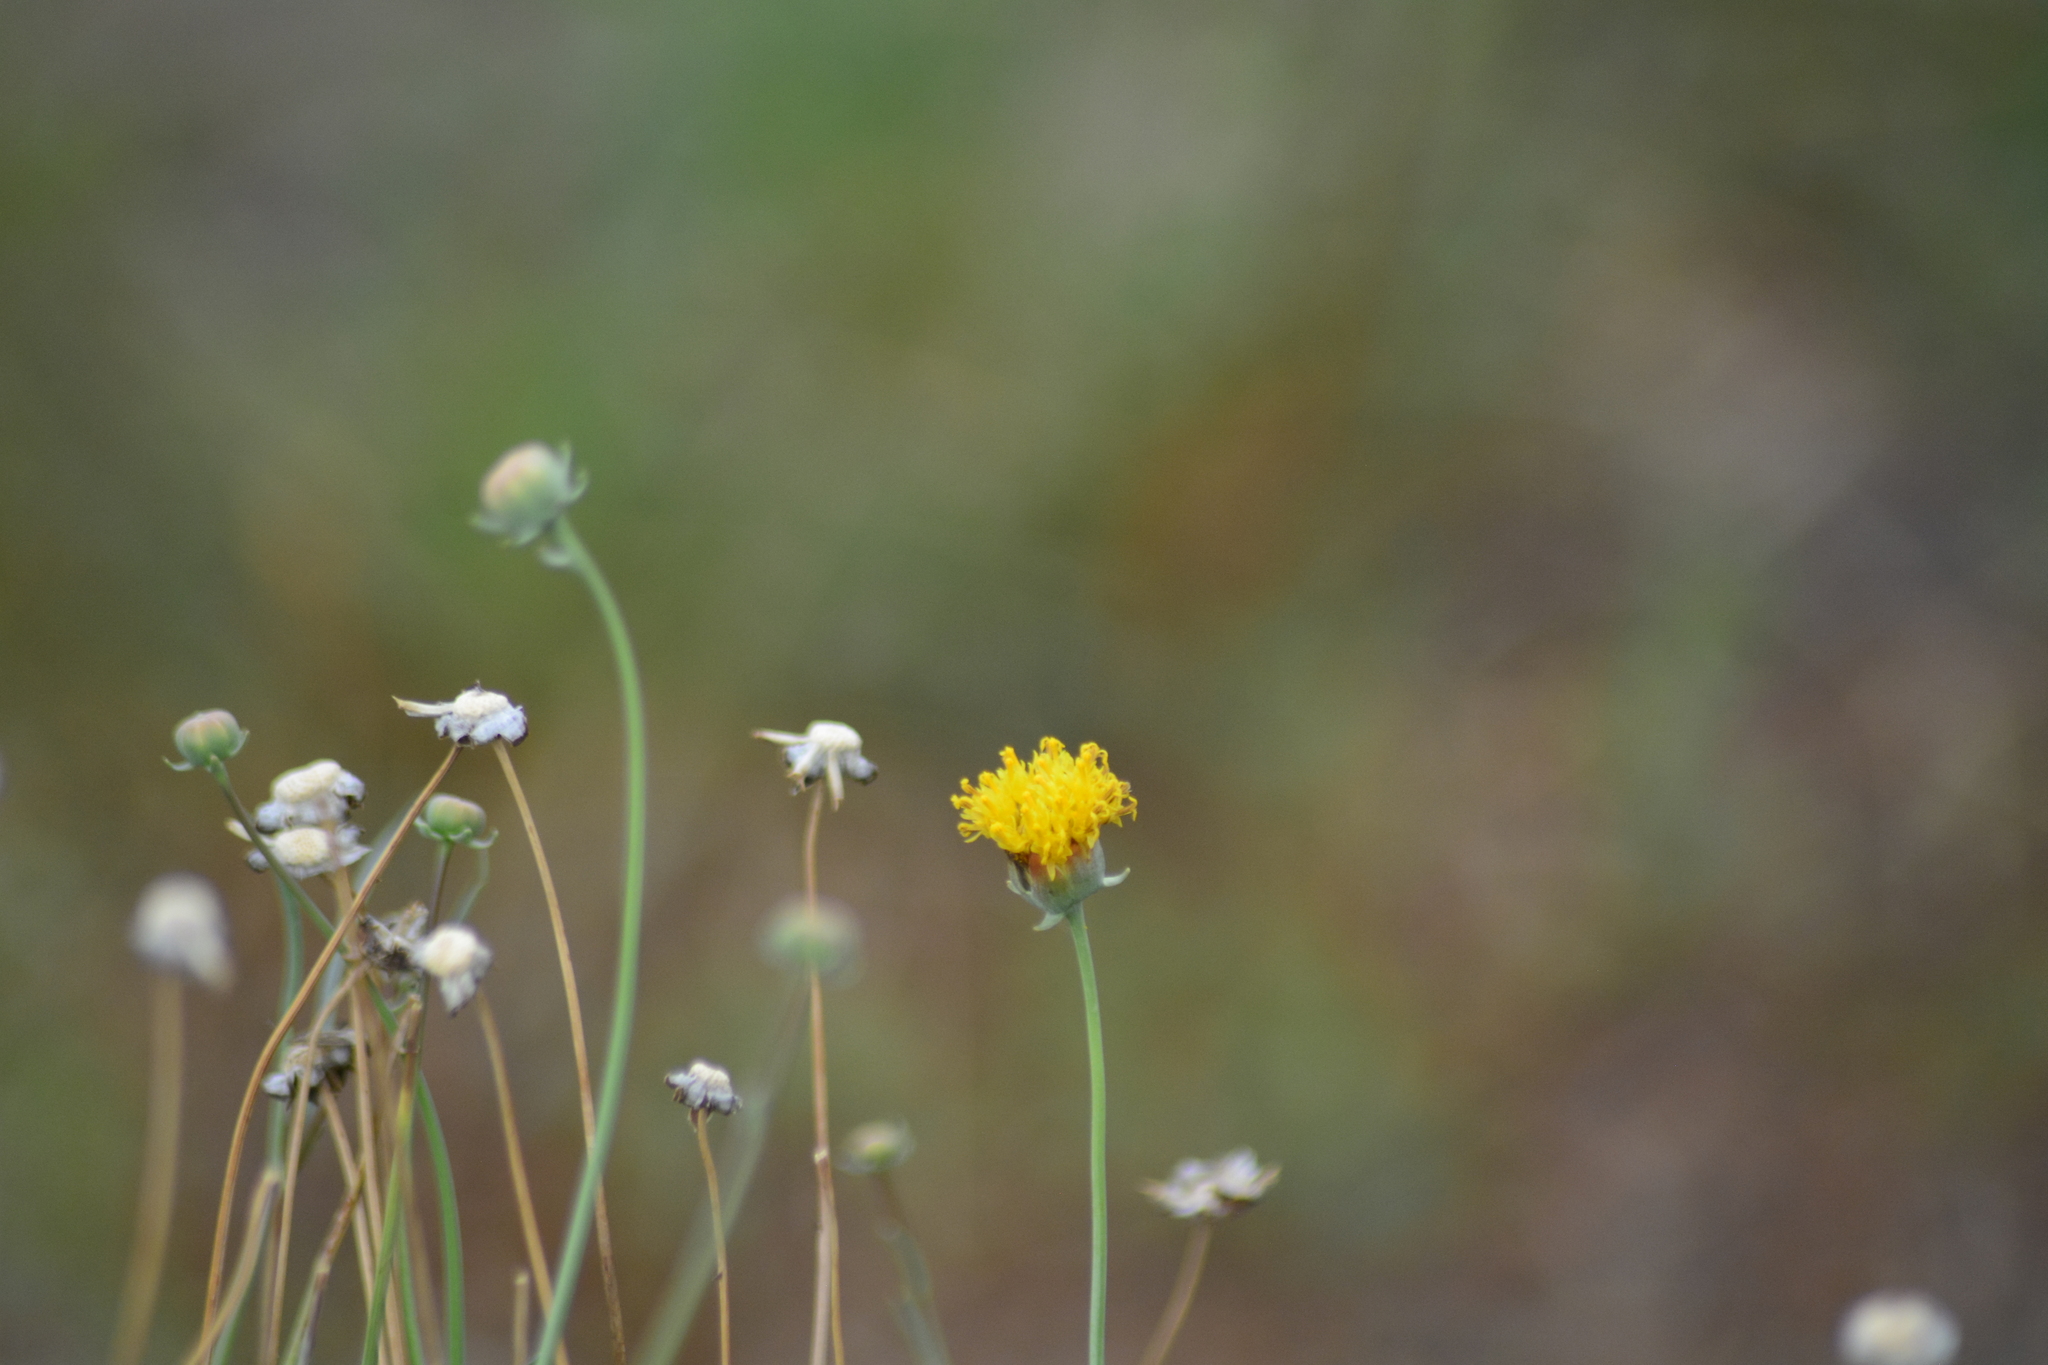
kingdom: Plantae
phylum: Tracheophyta
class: Magnoliopsida
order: Asterales
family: Asteraceae
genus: Thelesperma
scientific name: Thelesperma megapotamicum
